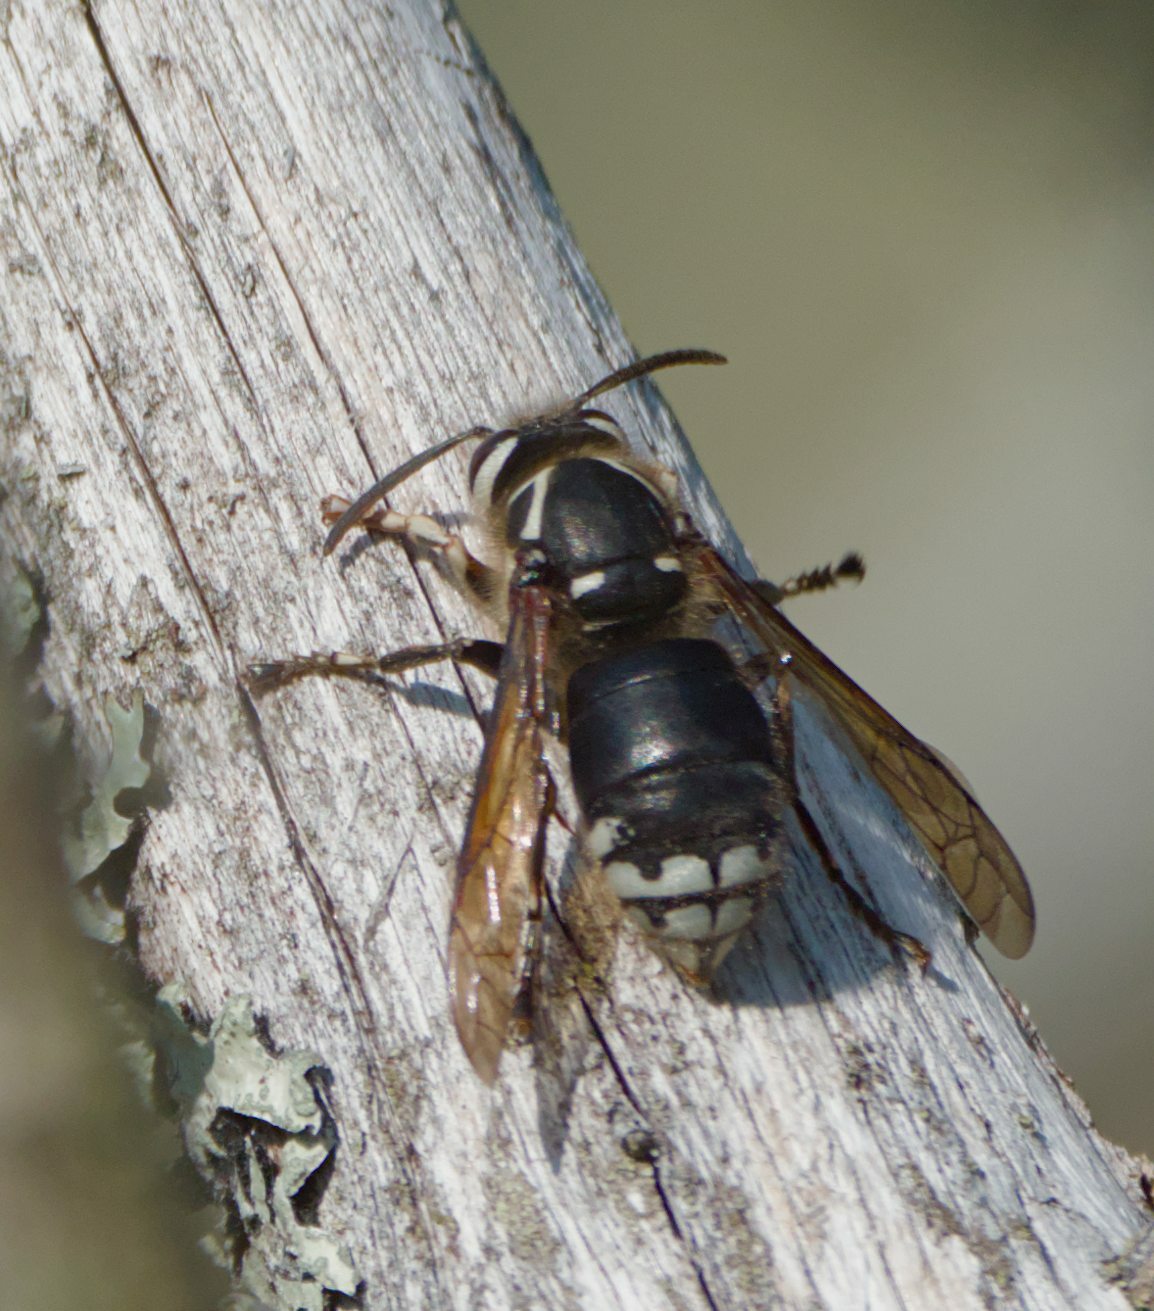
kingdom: Animalia
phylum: Arthropoda
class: Insecta
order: Hymenoptera
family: Vespidae
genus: Dolichovespula
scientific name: Dolichovespula maculata
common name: Bald-faced hornet
